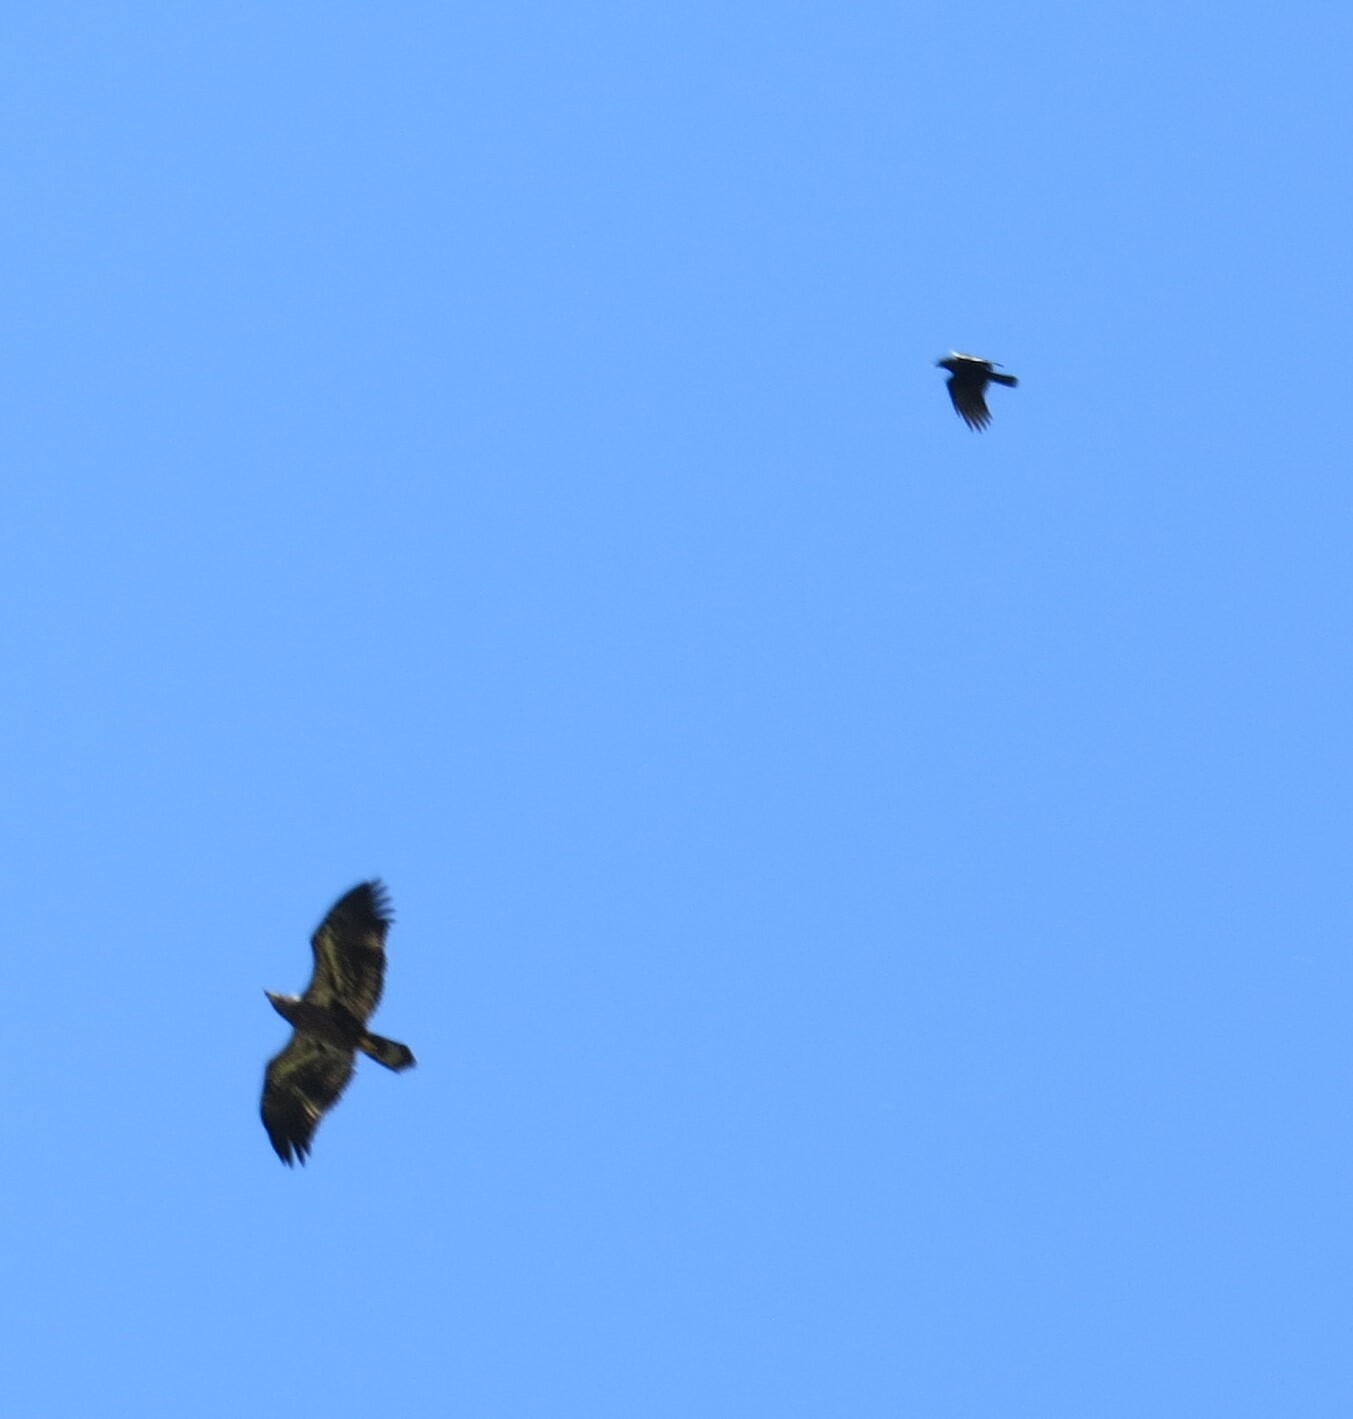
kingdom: Animalia
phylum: Chordata
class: Aves
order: Accipitriformes
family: Accipitridae
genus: Haliaeetus
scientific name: Haliaeetus leucocephalus
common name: Bald eagle
